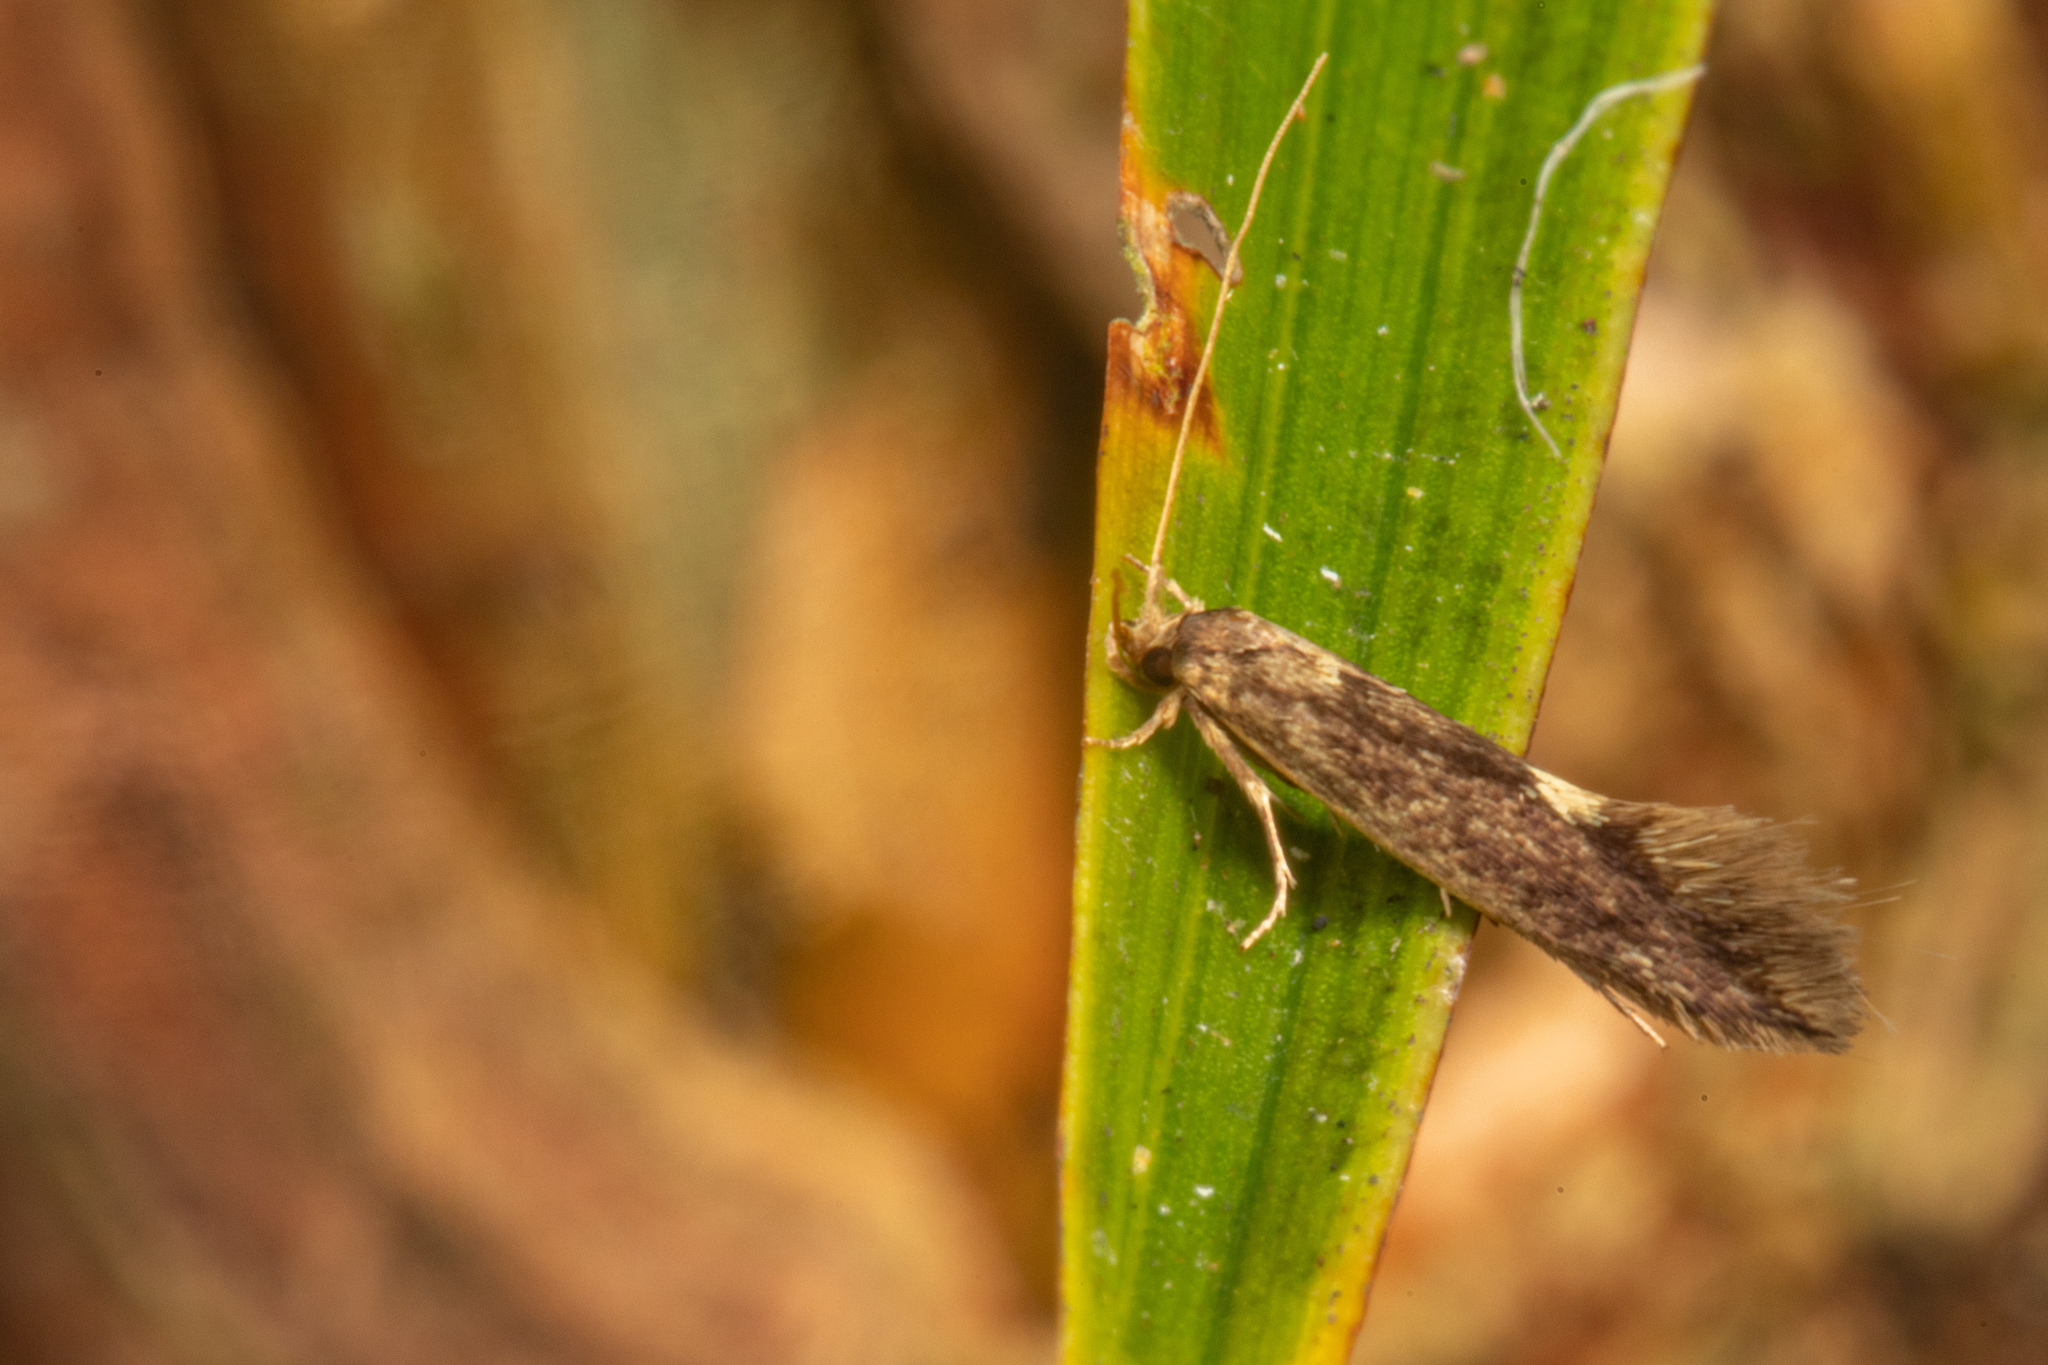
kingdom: Animalia
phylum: Arthropoda
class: Insecta
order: Lepidoptera
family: Tineidae
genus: Opogona
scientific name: Opogona omoscopa
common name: Moth
